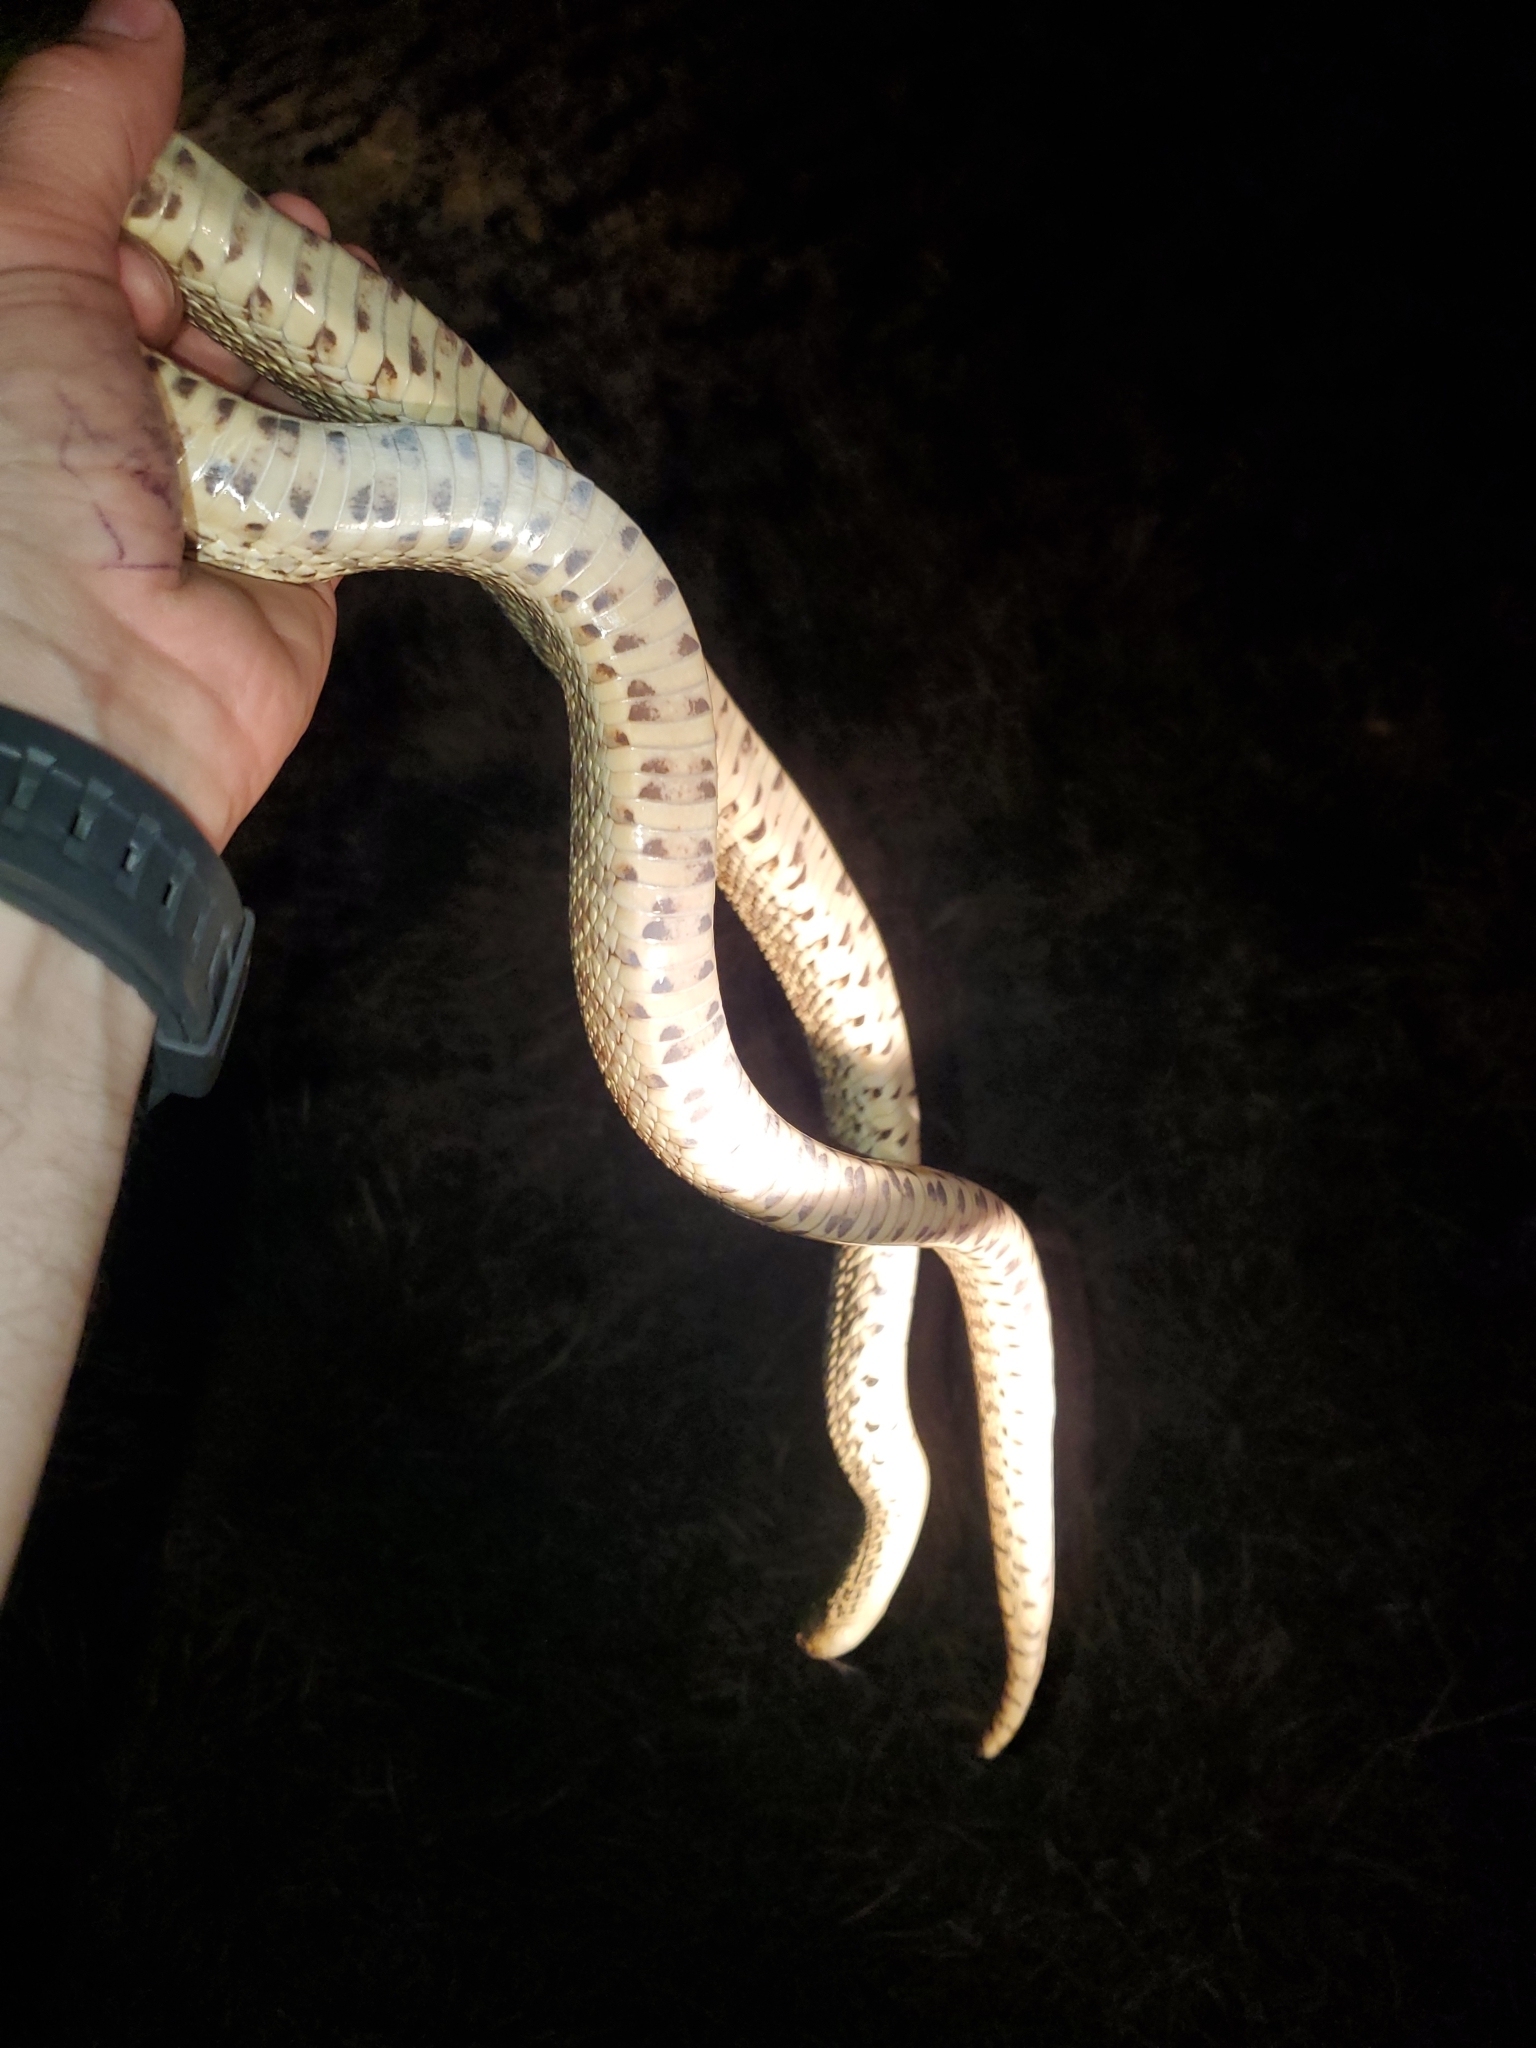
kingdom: Animalia
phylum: Chordata
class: Squamata
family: Colubridae
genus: Pituophis
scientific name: Pituophis catenifer
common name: Gopher snake
